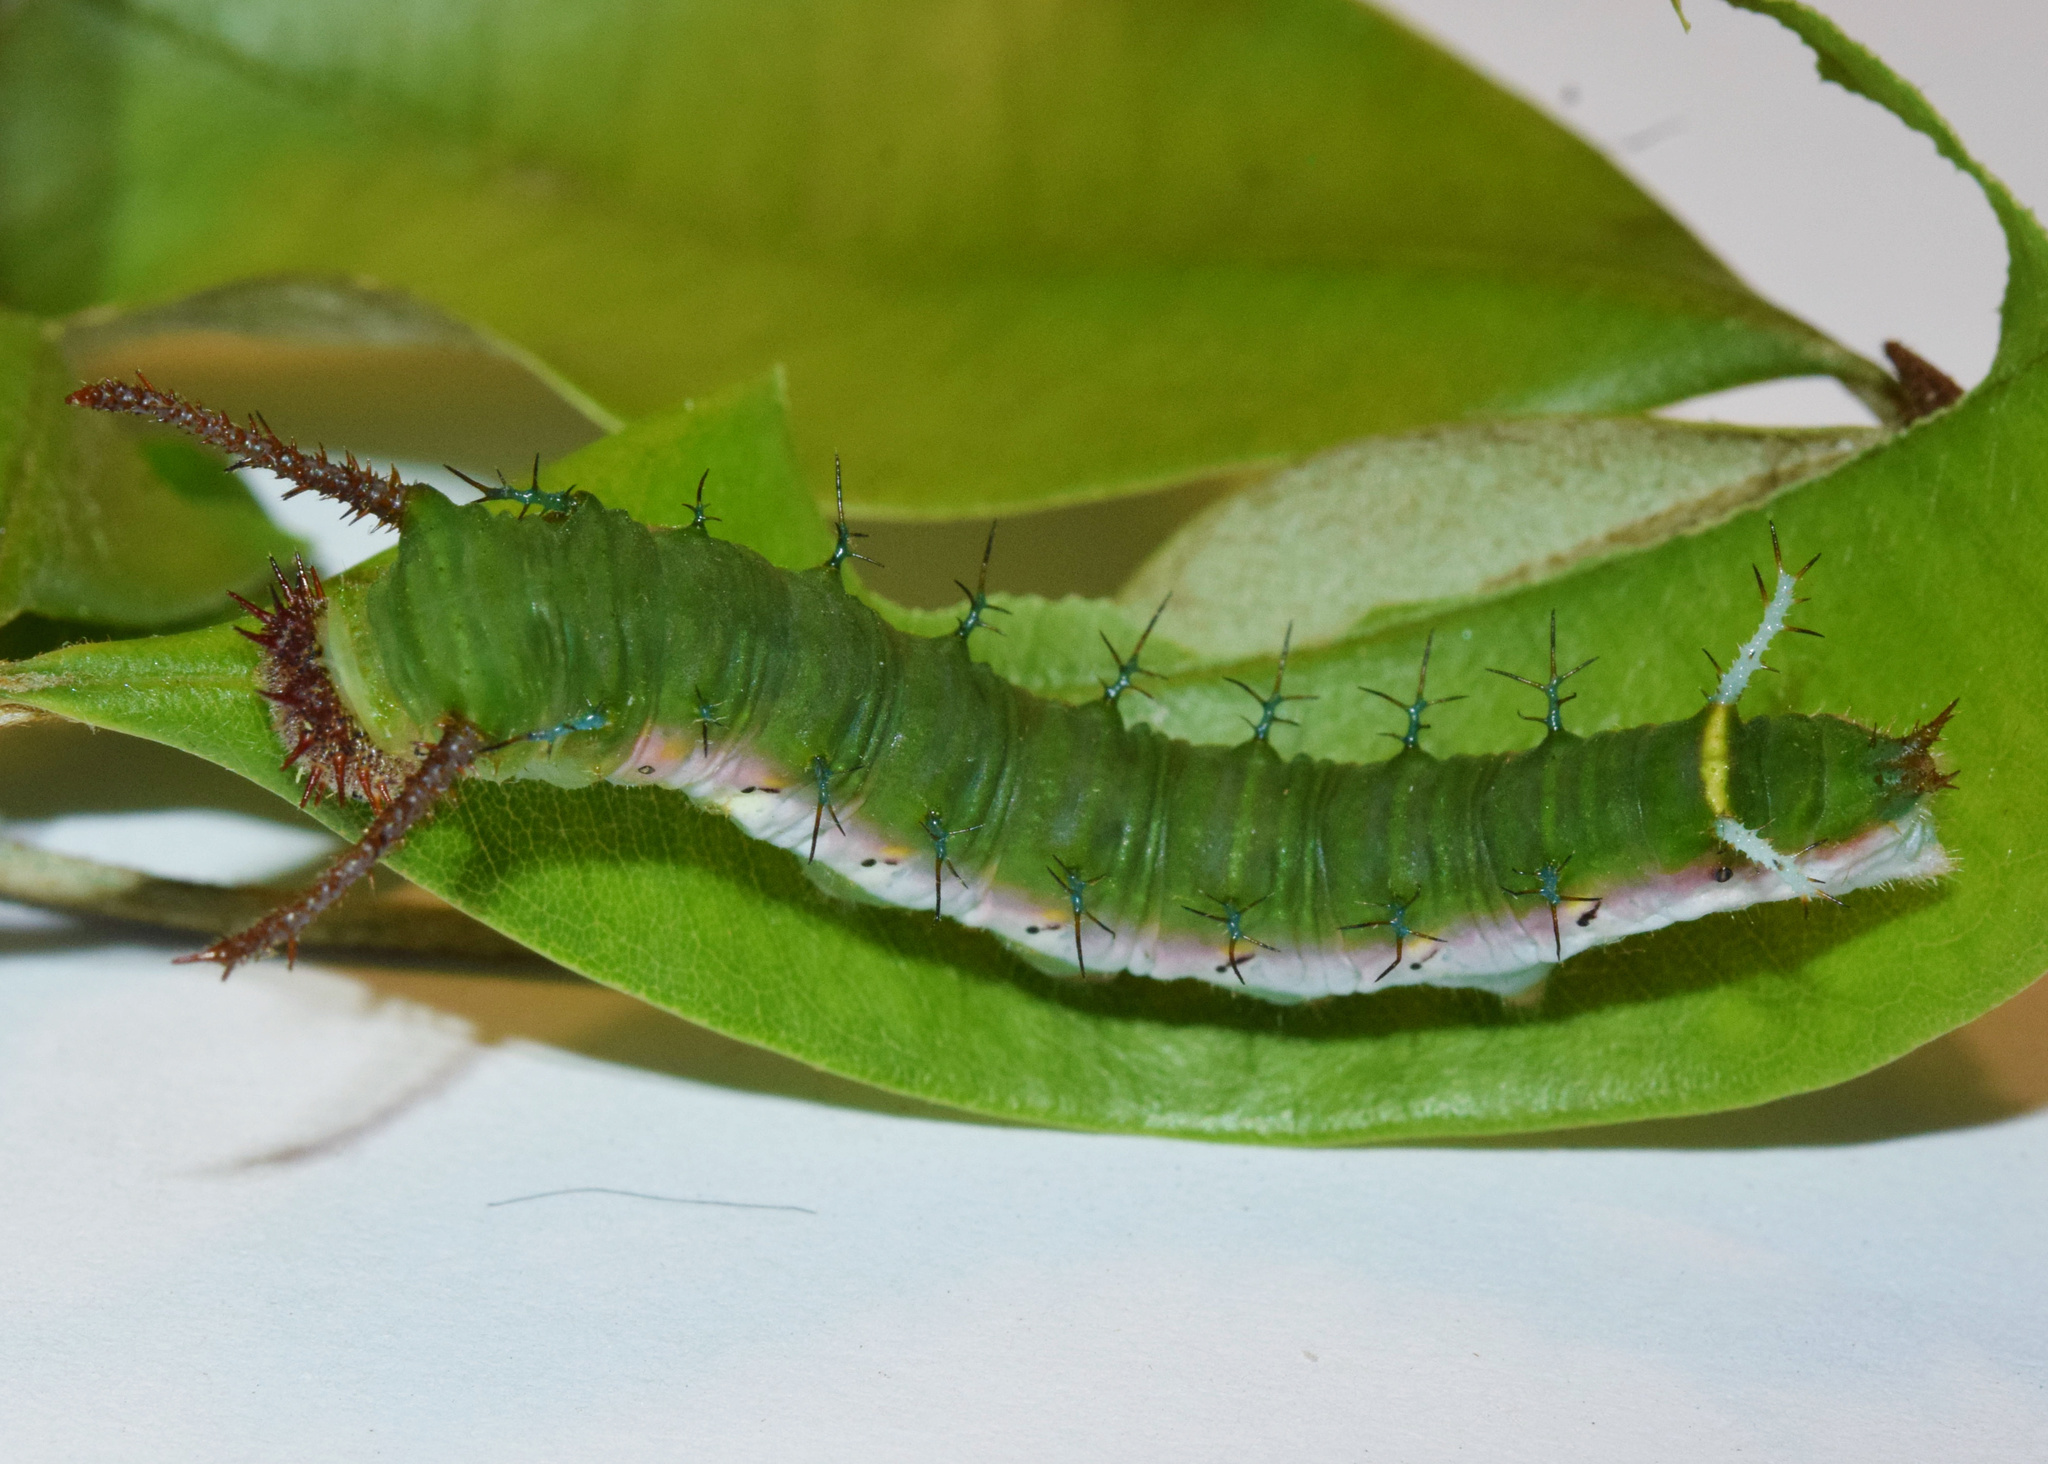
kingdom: Animalia
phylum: Arthropoda
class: Insecta
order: Lepidoptera
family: Nymphalidae
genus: Chloropoea
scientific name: Chloropoea lucretia
